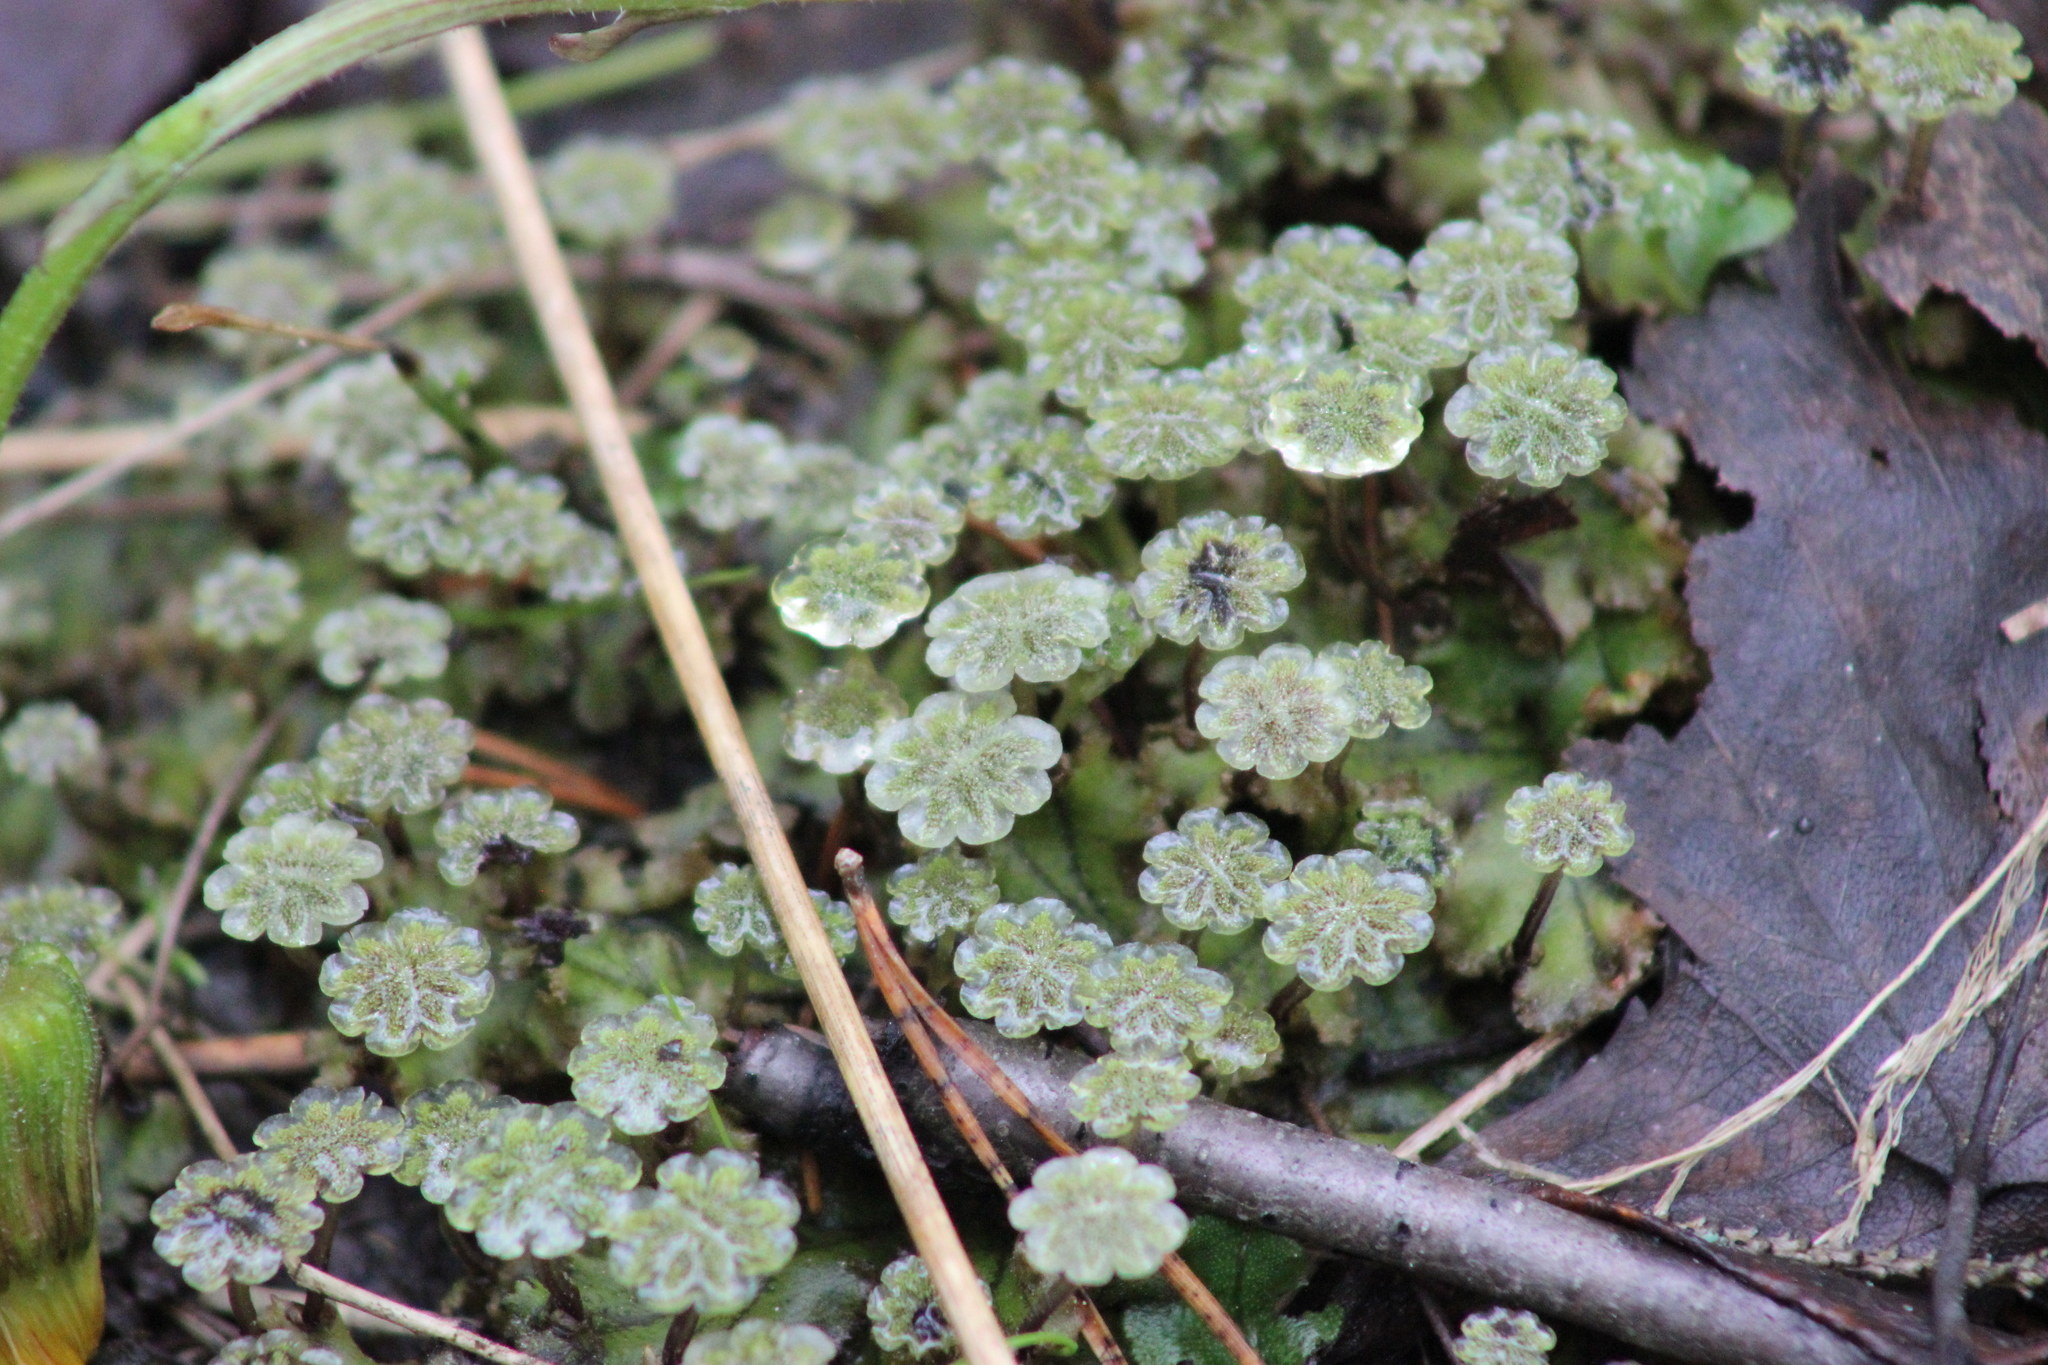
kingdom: Plantae
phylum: Marchantiophyta
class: Marchantiopsida
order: Marchantiales
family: Marchantiaceae
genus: Marchantia
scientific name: Marchantia polymorpha
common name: Common liverwort
